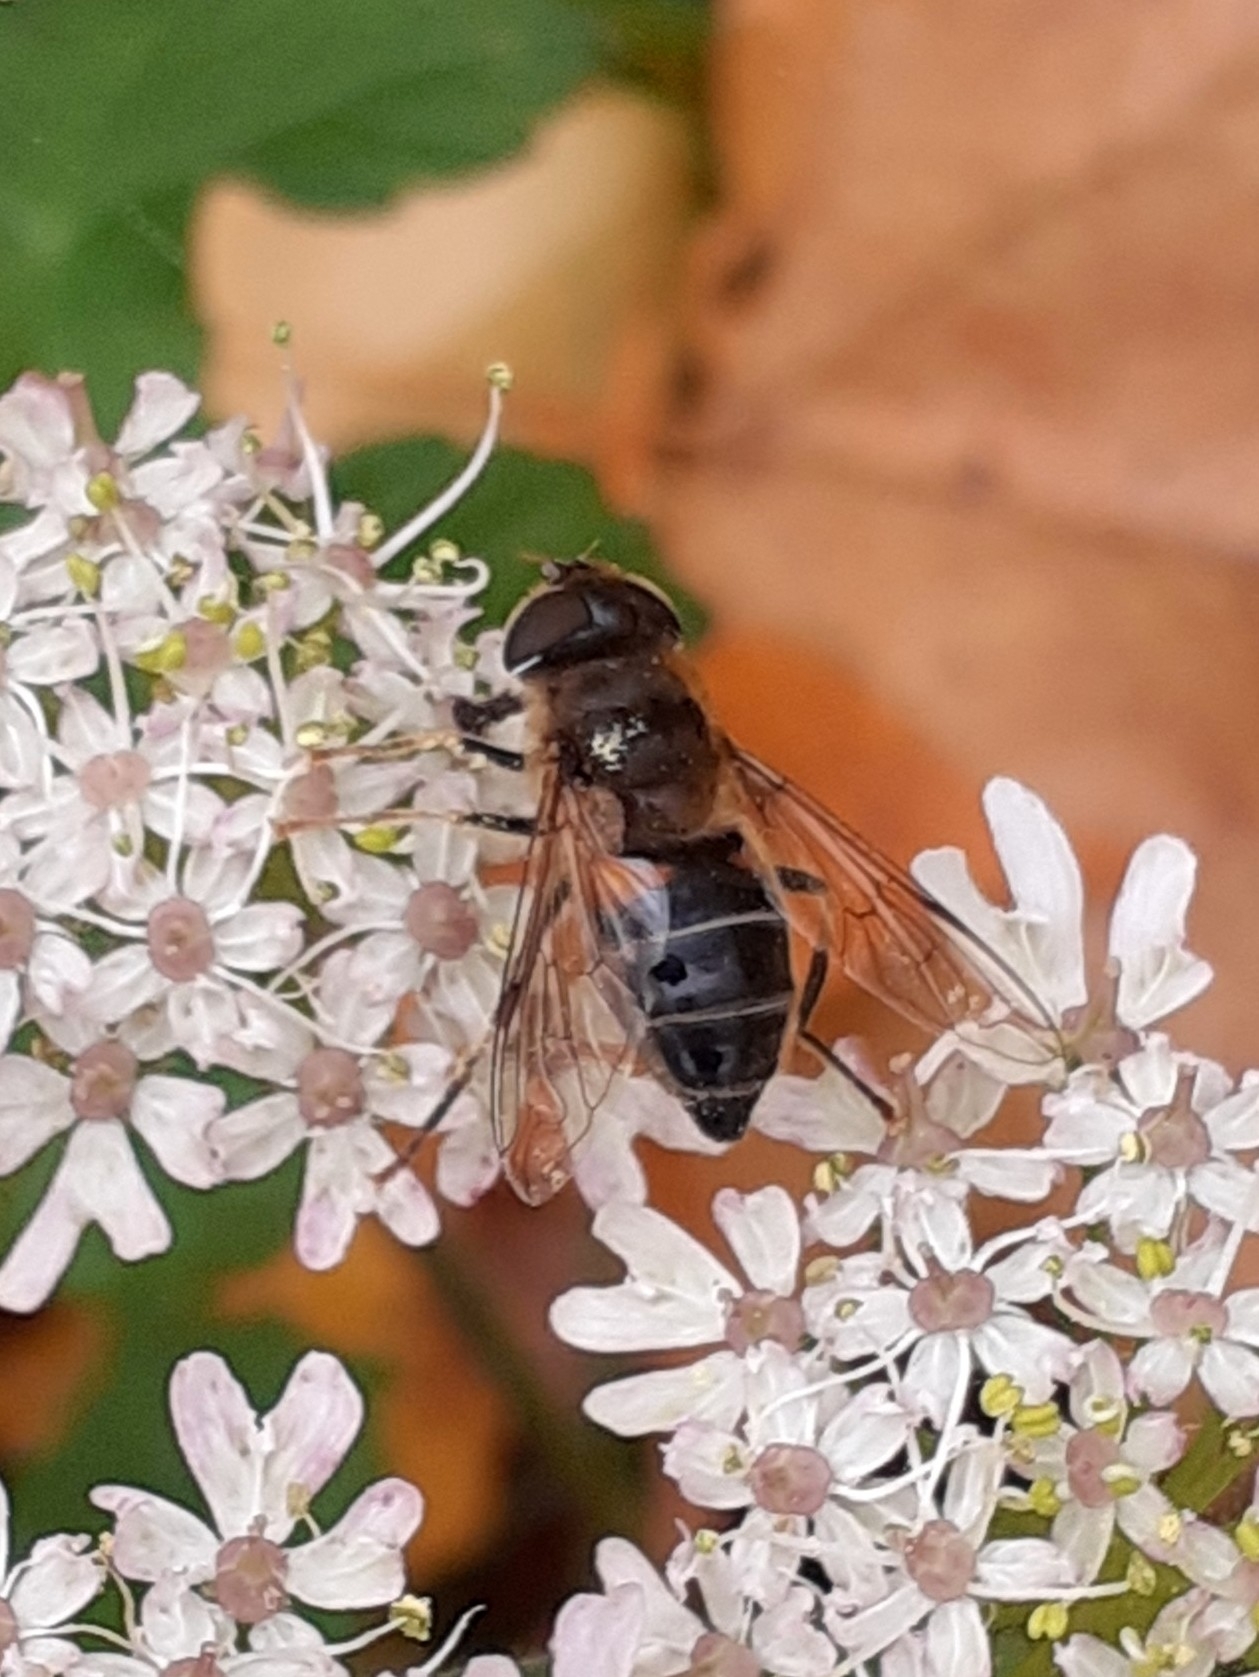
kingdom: Animalia
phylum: Arthropoda
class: Insecta
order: Diptera
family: Syrphidae
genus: Eristalis
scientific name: Eristalis pertinax
